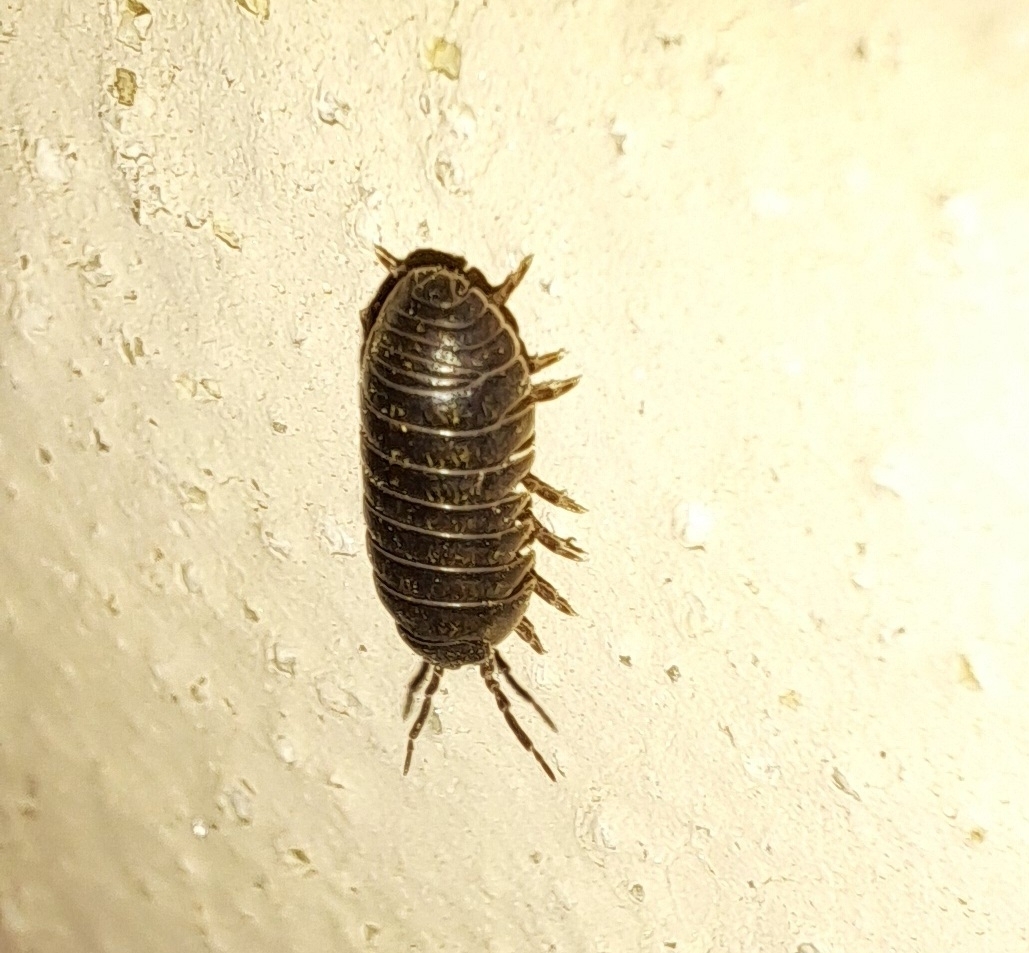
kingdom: Animalia
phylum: Arthropoda
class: Malacostraca
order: Isopoda
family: Armadillidiidae
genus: Armadillidium
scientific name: Armadillidium vulgare
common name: Common pill woodlouse
